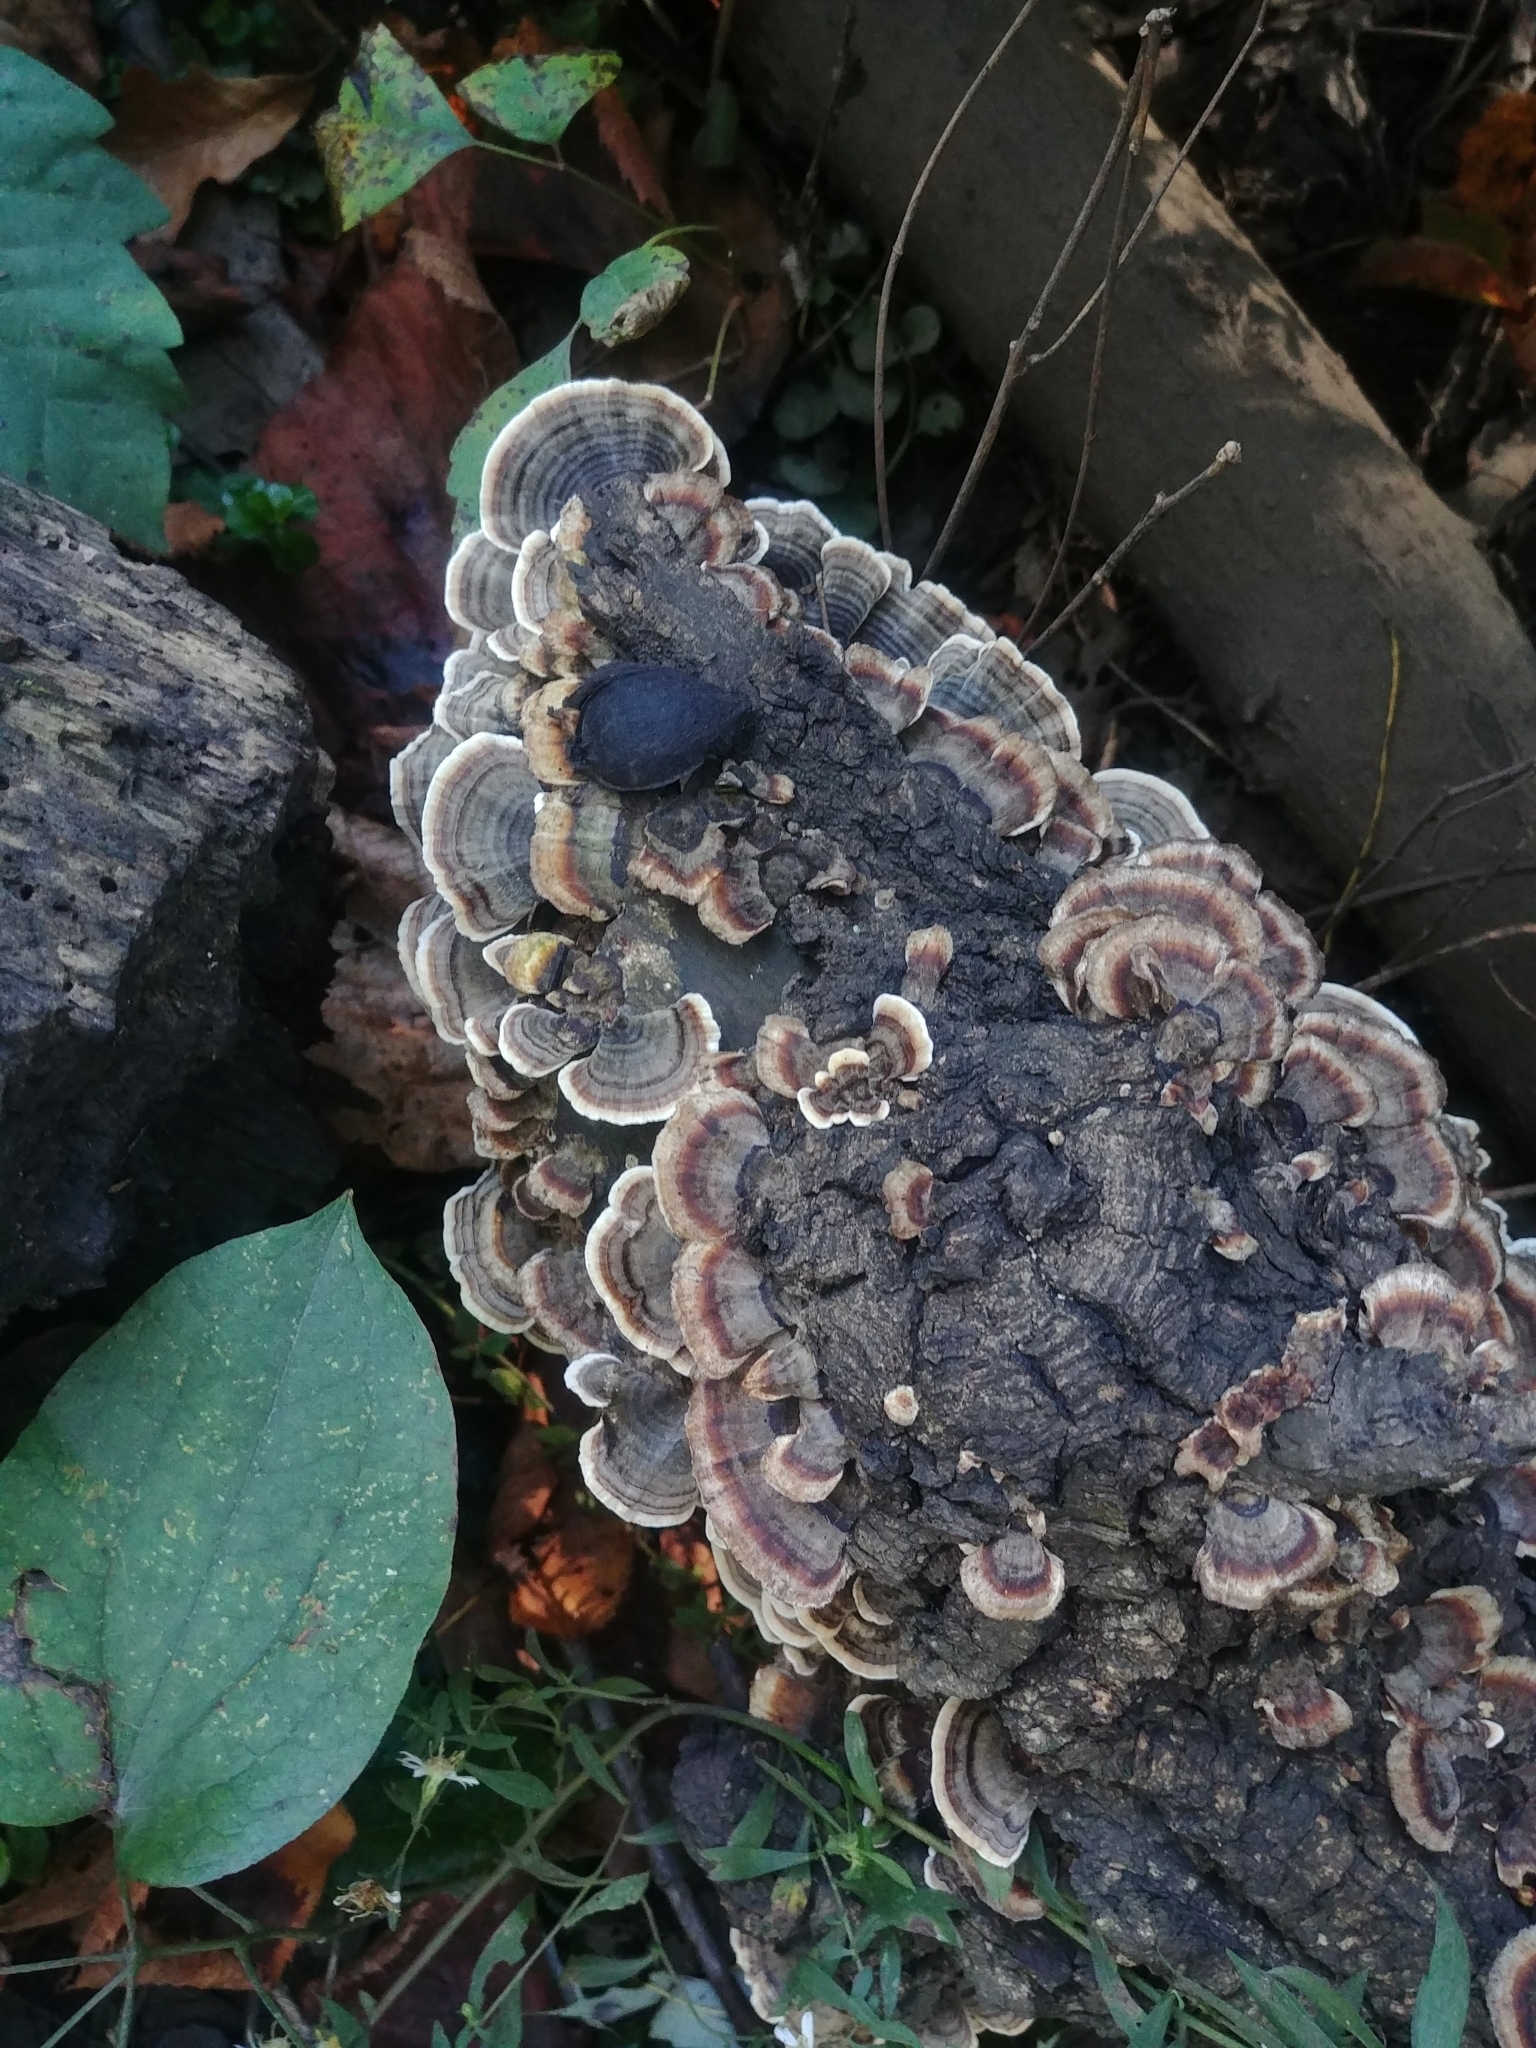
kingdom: Fungi
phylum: Basidiomycota
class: Agaricomycetes
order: Polyporales
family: Polyporaceae
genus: Trametes
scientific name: Trametes versicolor
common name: Turkeytail
